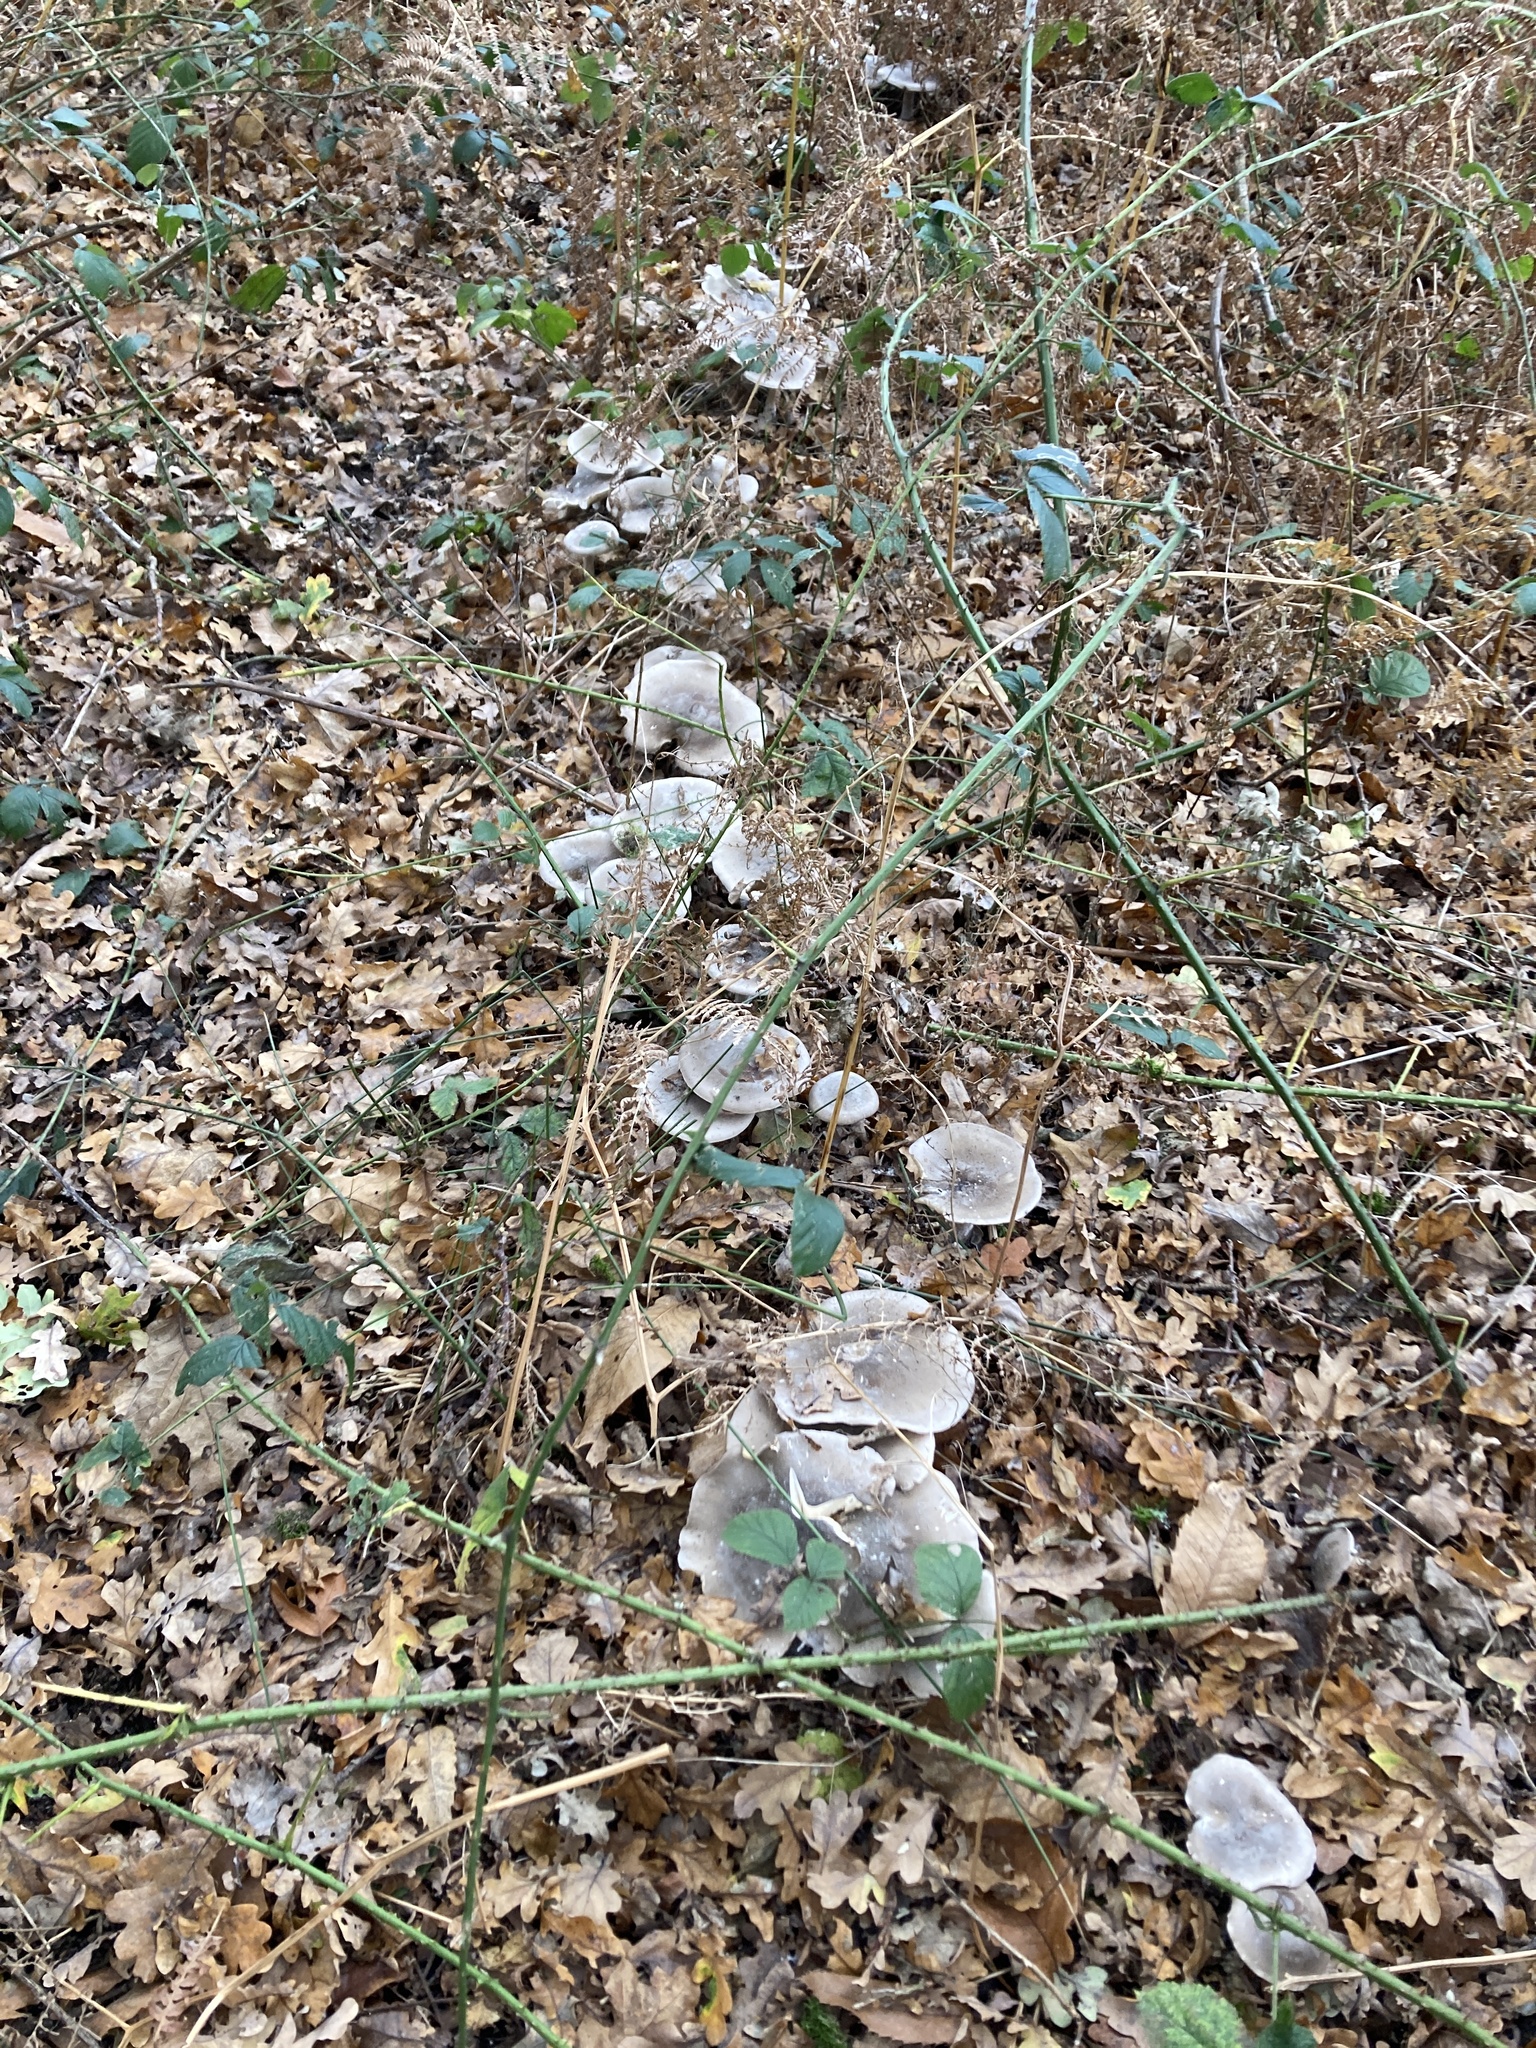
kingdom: Fungi
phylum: Basidiomycota
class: Agaricomycetes
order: Agaricales
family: Tricholomataceae
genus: Clitocybe
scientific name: Clitocybe nebularis
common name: Clouded agaric
